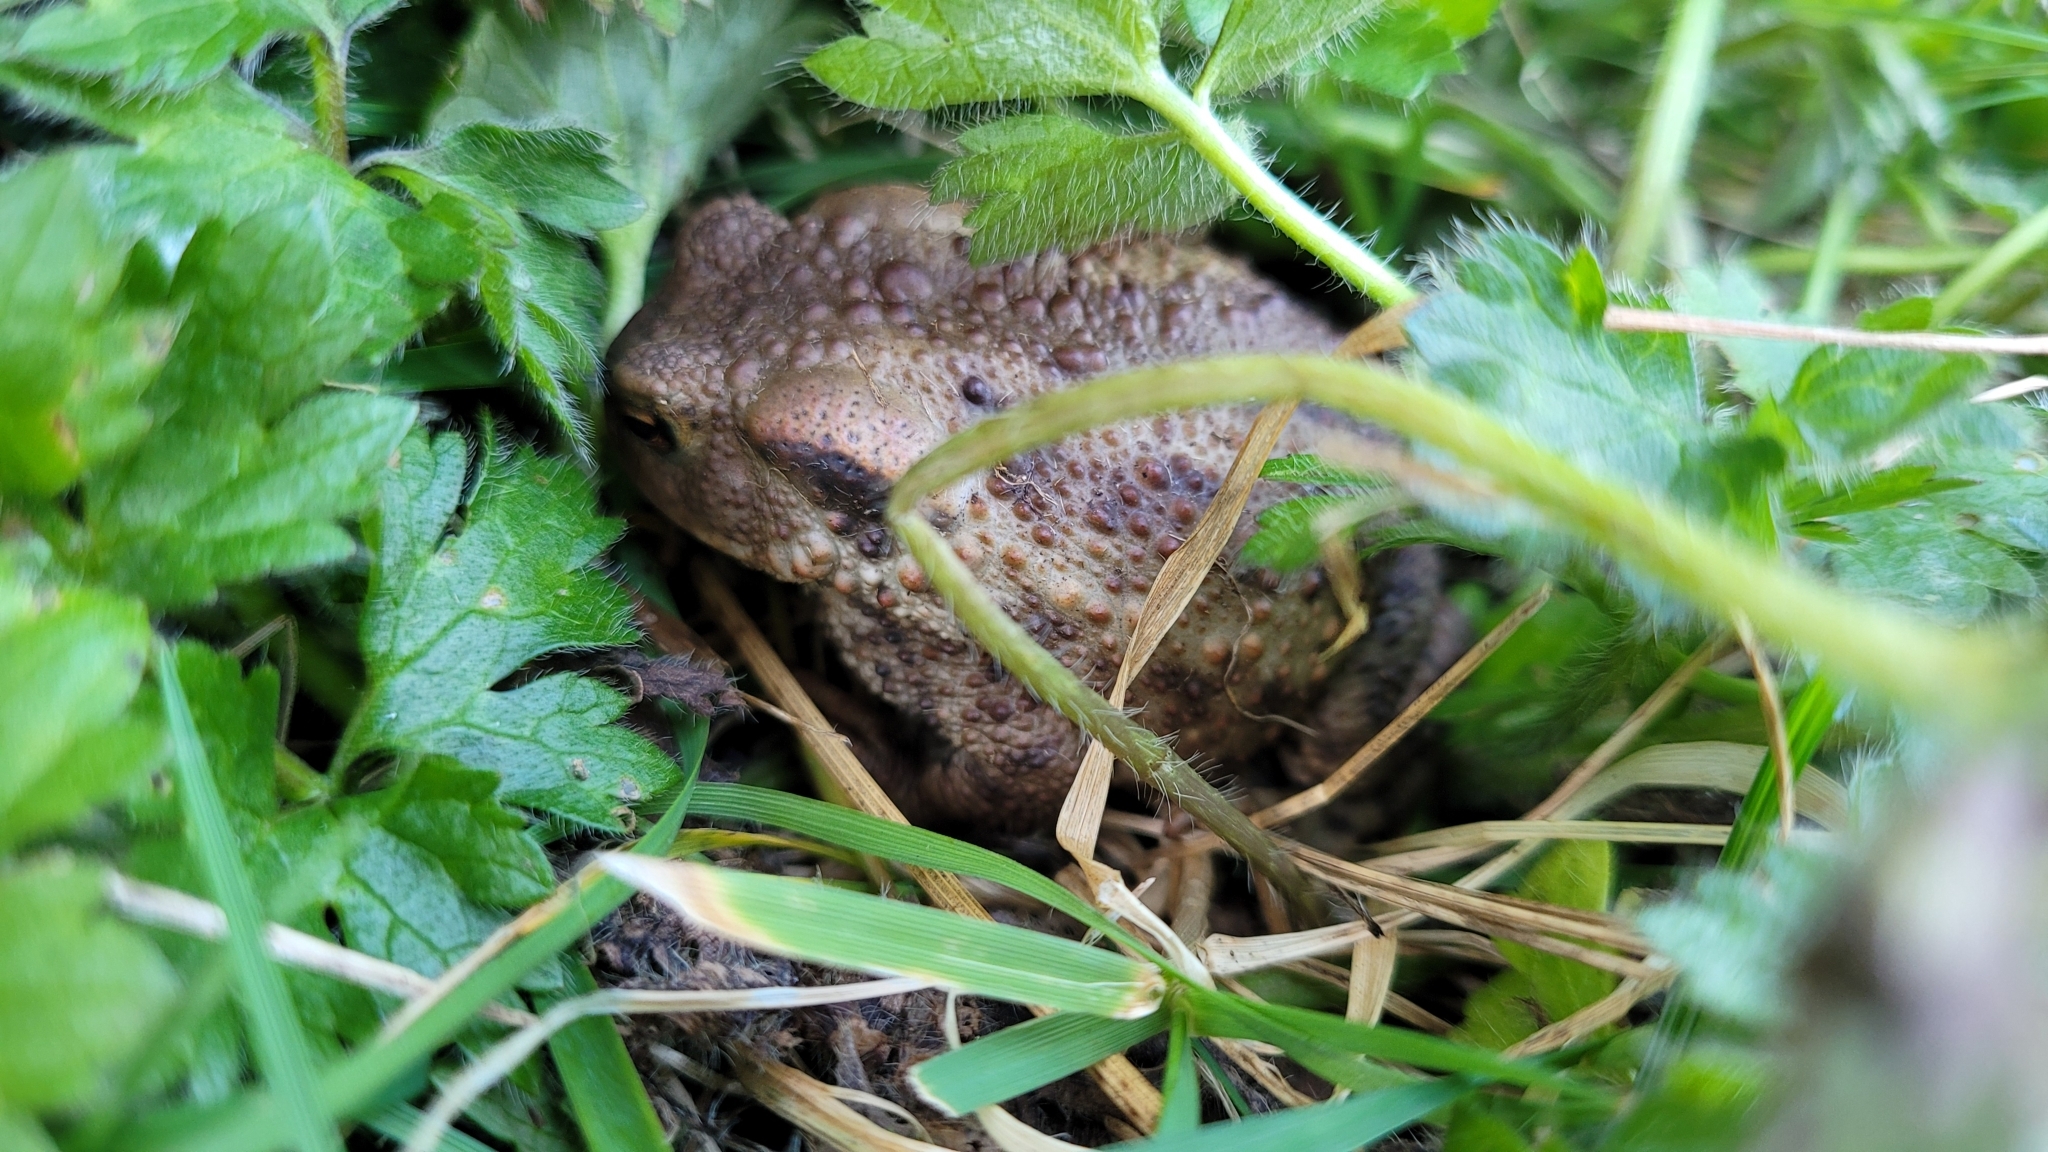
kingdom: Animalia
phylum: Chordata
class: Amphibia
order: Anura
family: Bufonidae
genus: Bufo
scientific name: Bufo bufo
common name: Common toad
